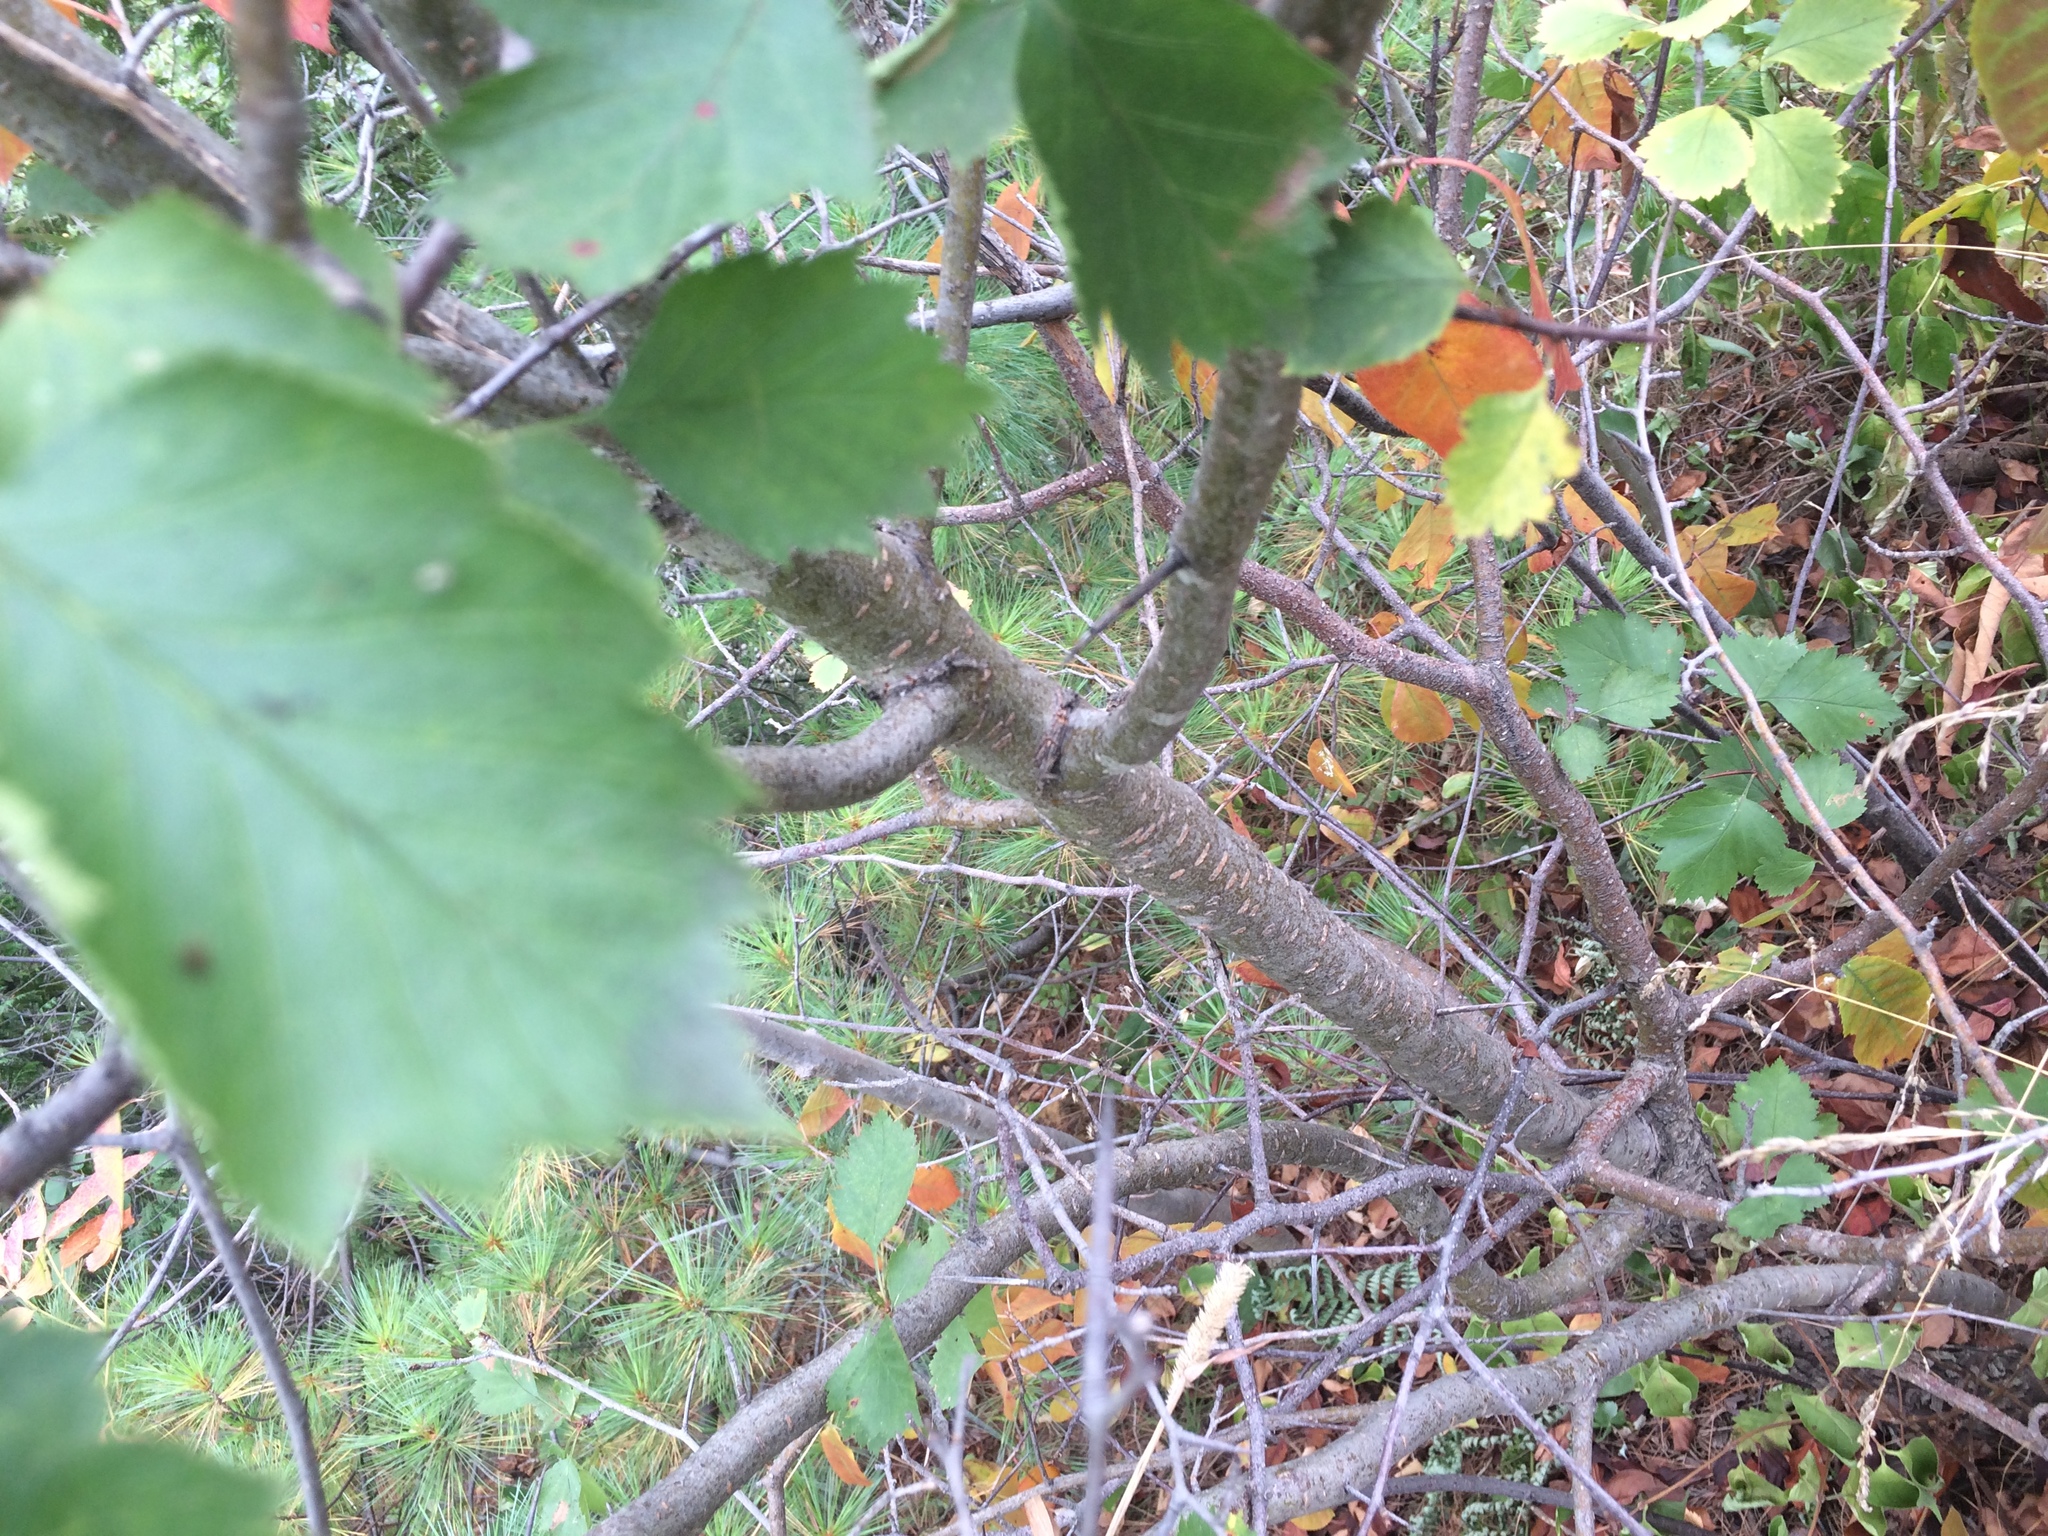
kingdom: Plantae
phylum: Tracheophyta
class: Magnoliopsida
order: Rosales
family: Rosaceae
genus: Crataegus
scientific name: Crataegus irrasa
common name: Unshorn hawthorn
